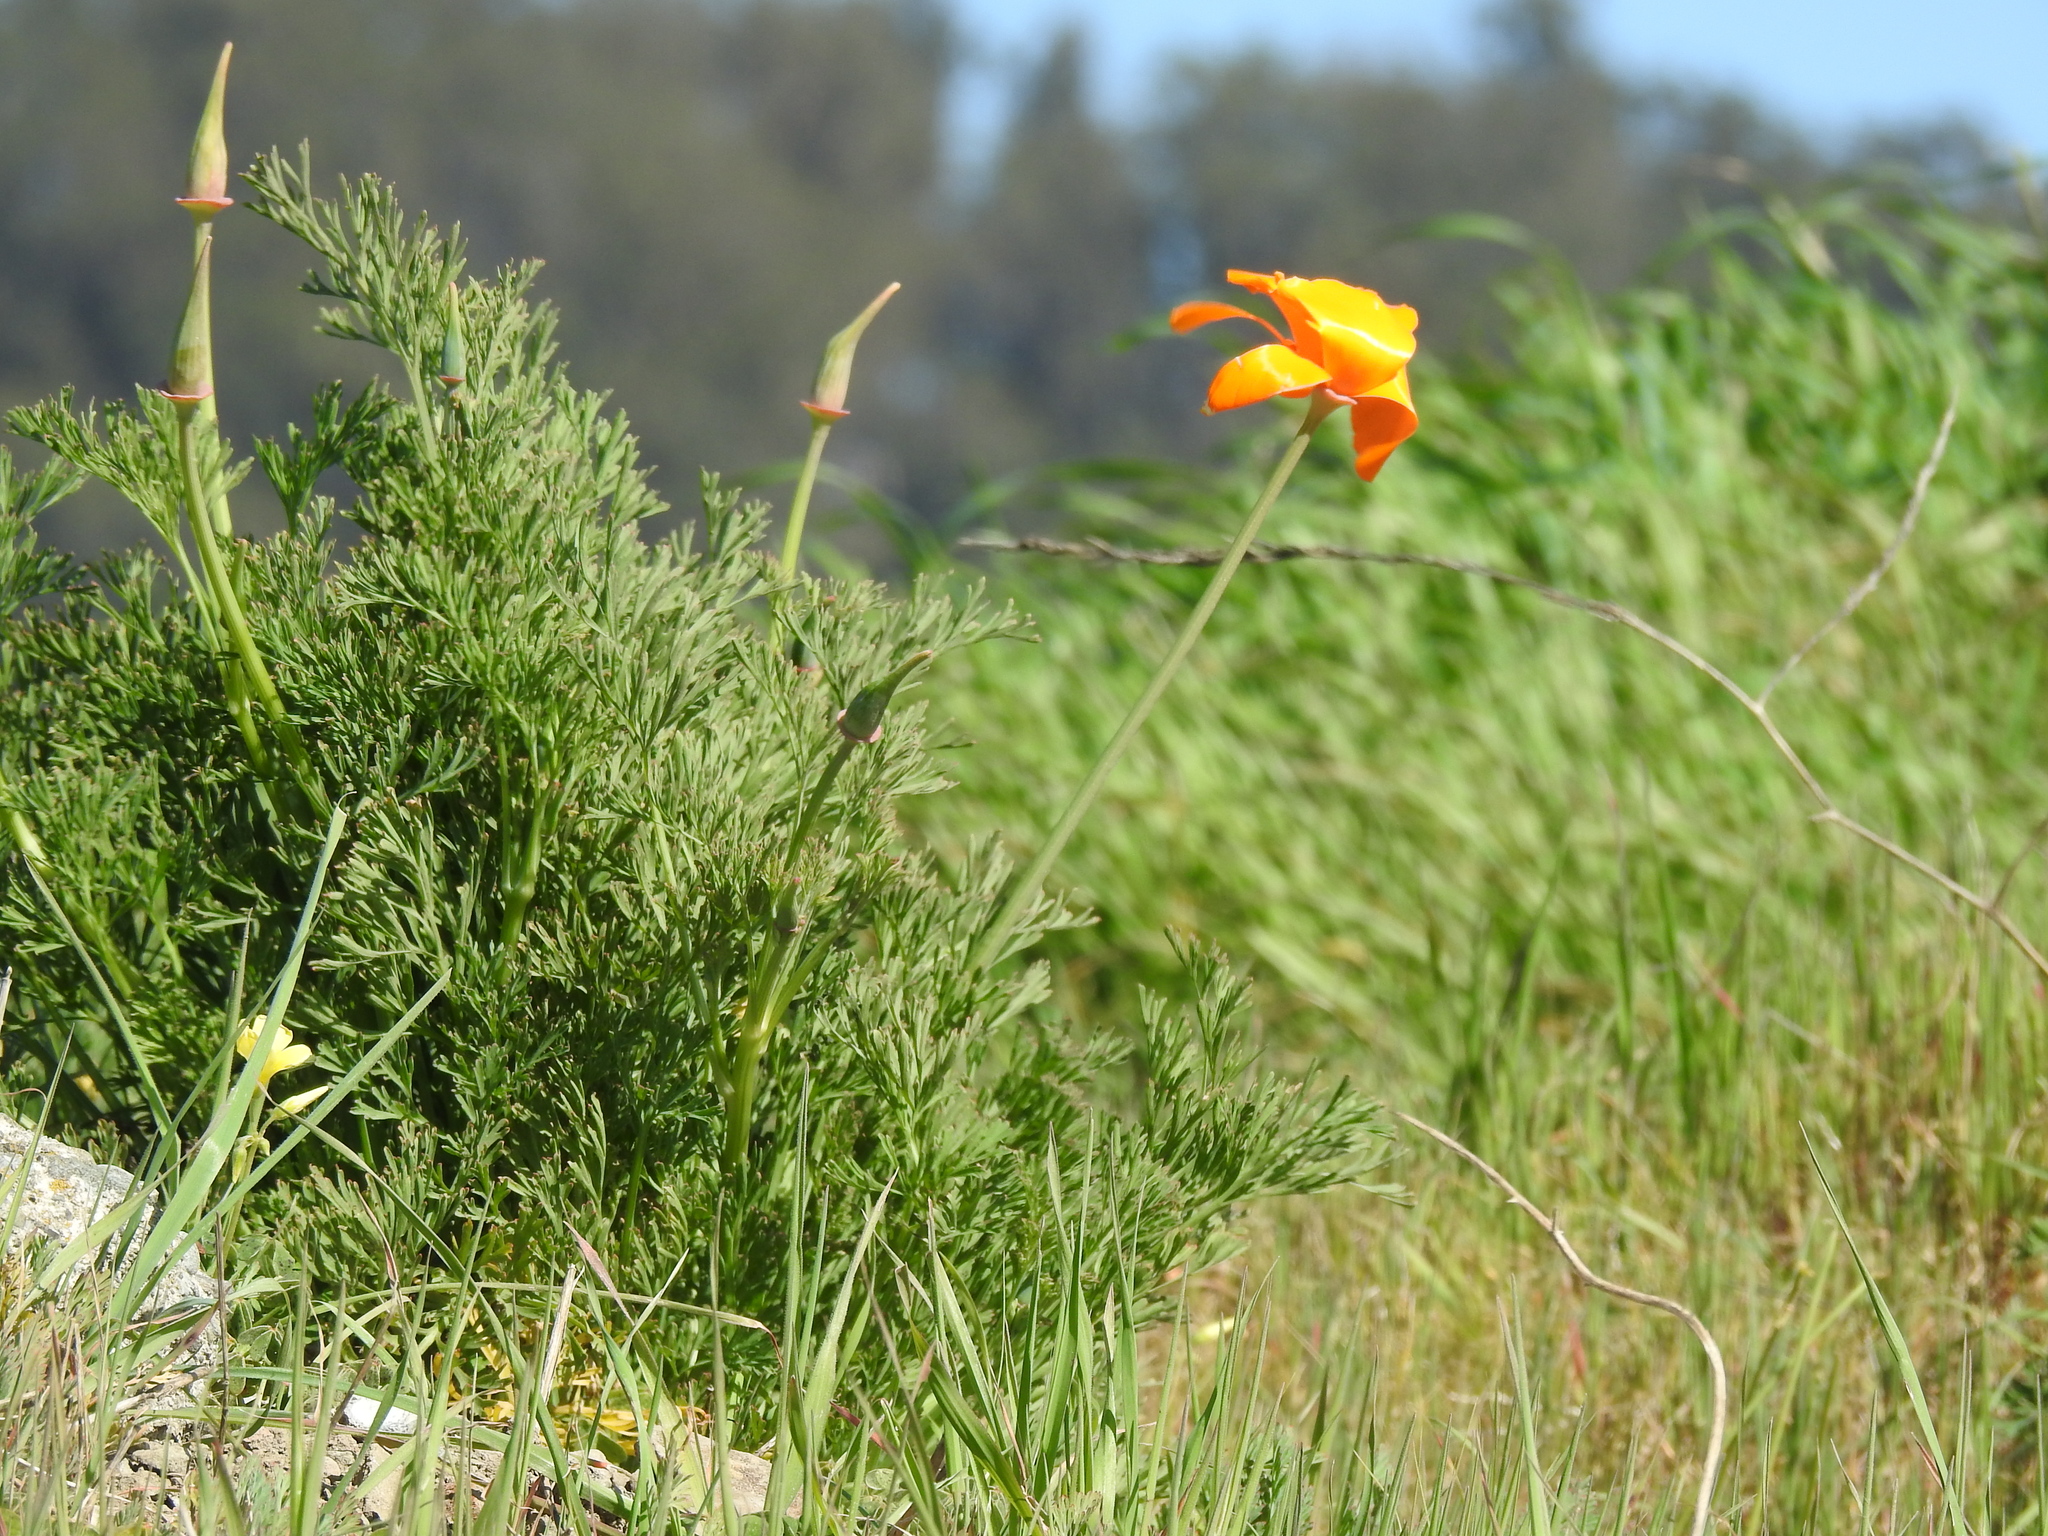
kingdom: Plantae
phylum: Tracheophyta
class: Magnoliopsida
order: Ranunculales
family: Papaveraceae
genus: Eschscholzia
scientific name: Eschscholzia californica
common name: California poppy
